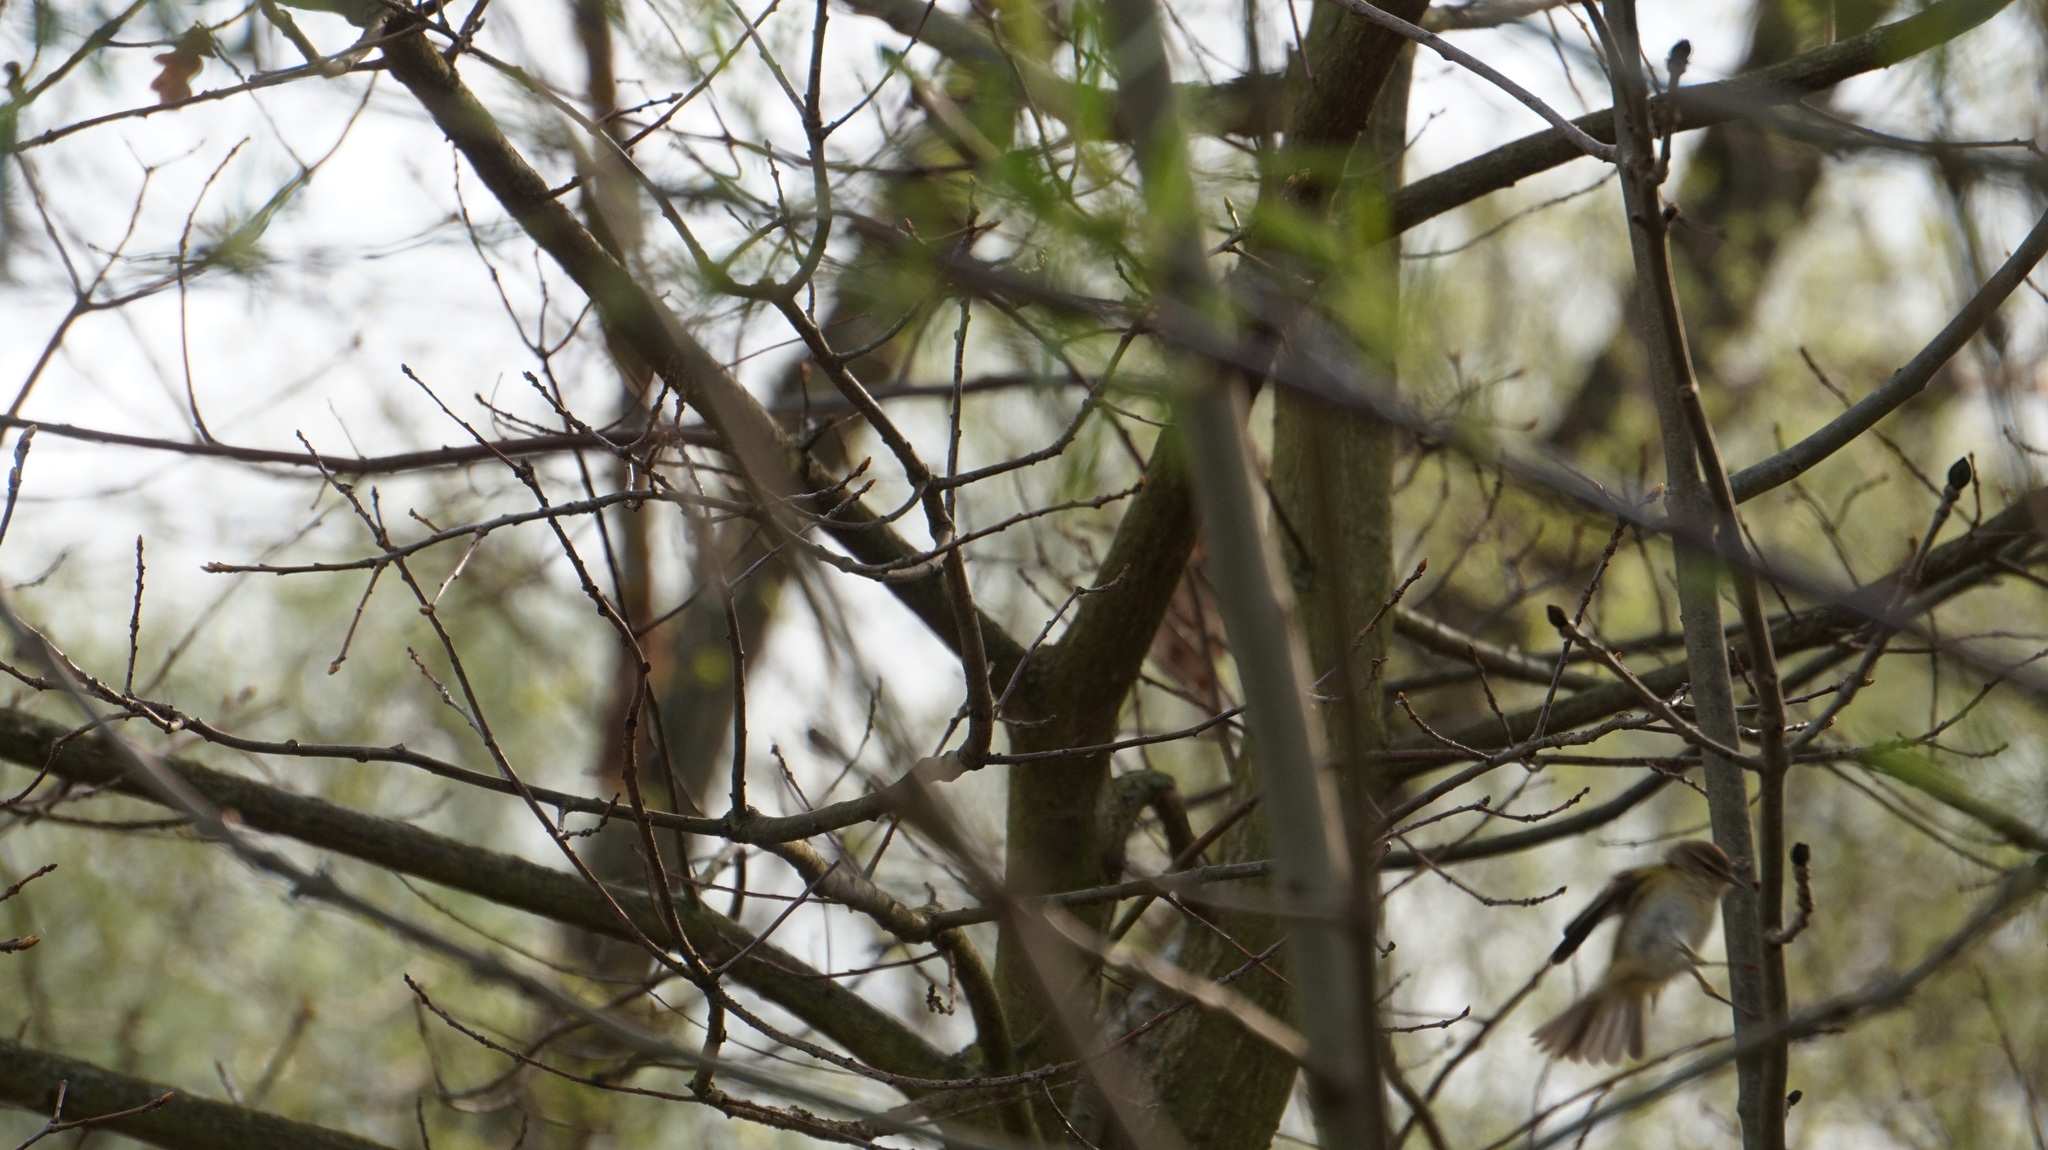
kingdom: Animalia
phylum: Chordata
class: Aves
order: Passeriformes
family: Phylloscopidae
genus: Phylloscopus
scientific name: Phylloscopus collybita
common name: Common chiffchaff
